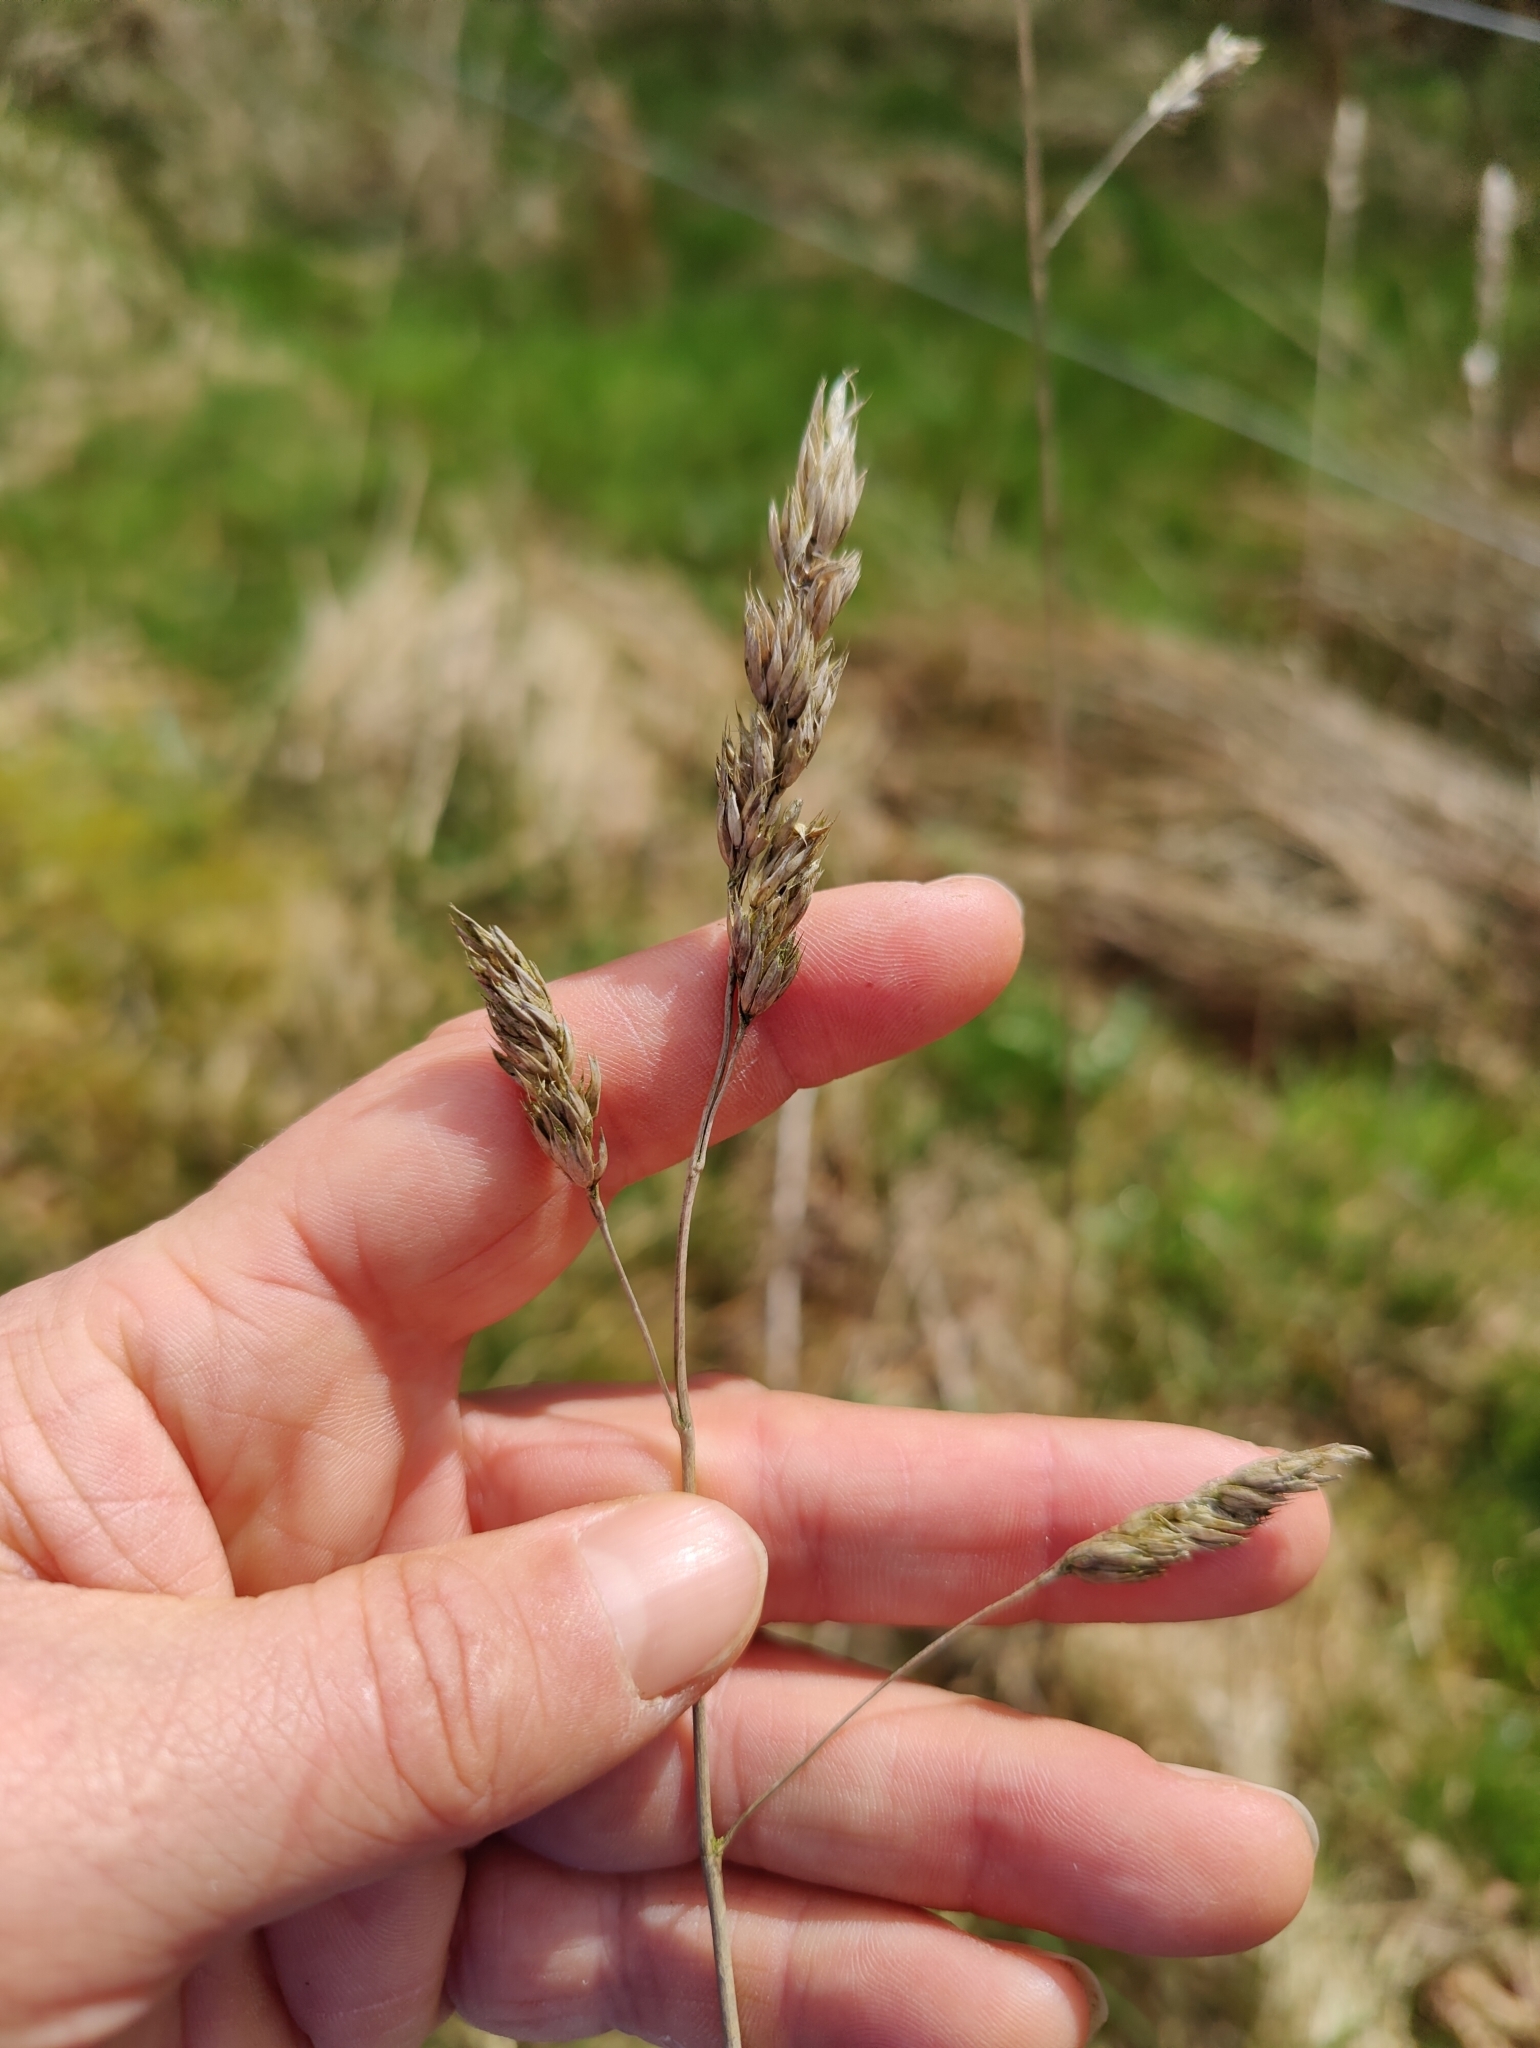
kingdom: Plantae
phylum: Tracheophyta
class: Liliopsida
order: Poales
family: Poaceae
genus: Dactylis
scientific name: Dactylis glomerata
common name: Orchardgrass
